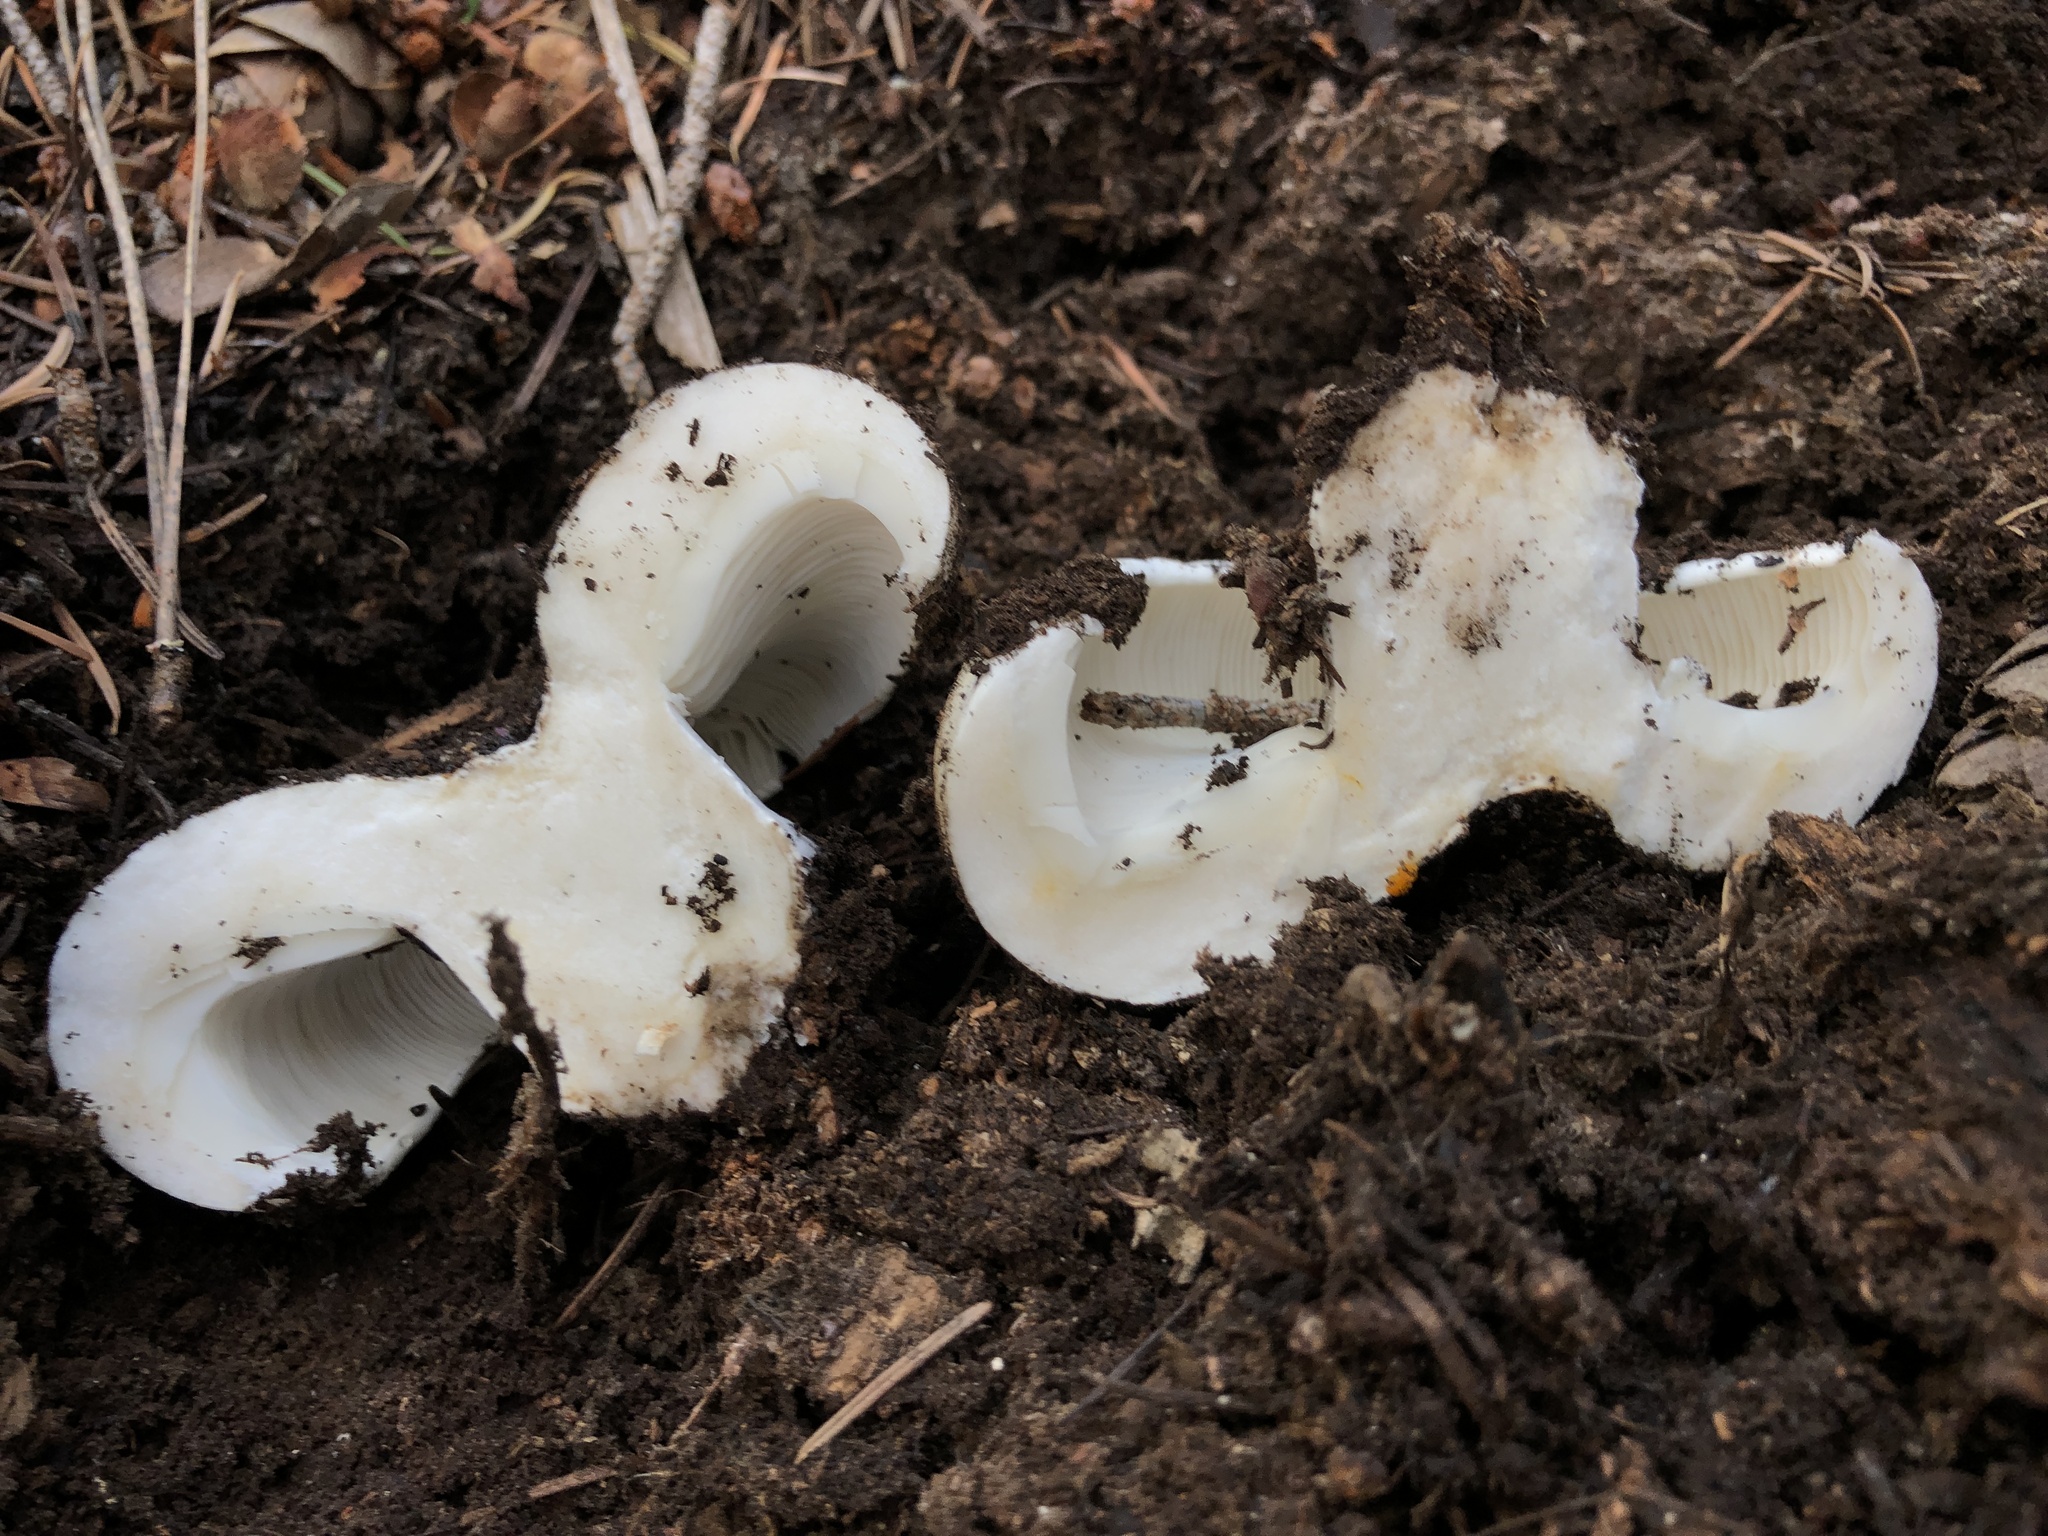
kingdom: Fungi
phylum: Basidiomycota
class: Agaricomycetes
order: Russulales
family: Russulaceae
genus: Russula
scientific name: Russula brevipes
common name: Short-stemmed russula
